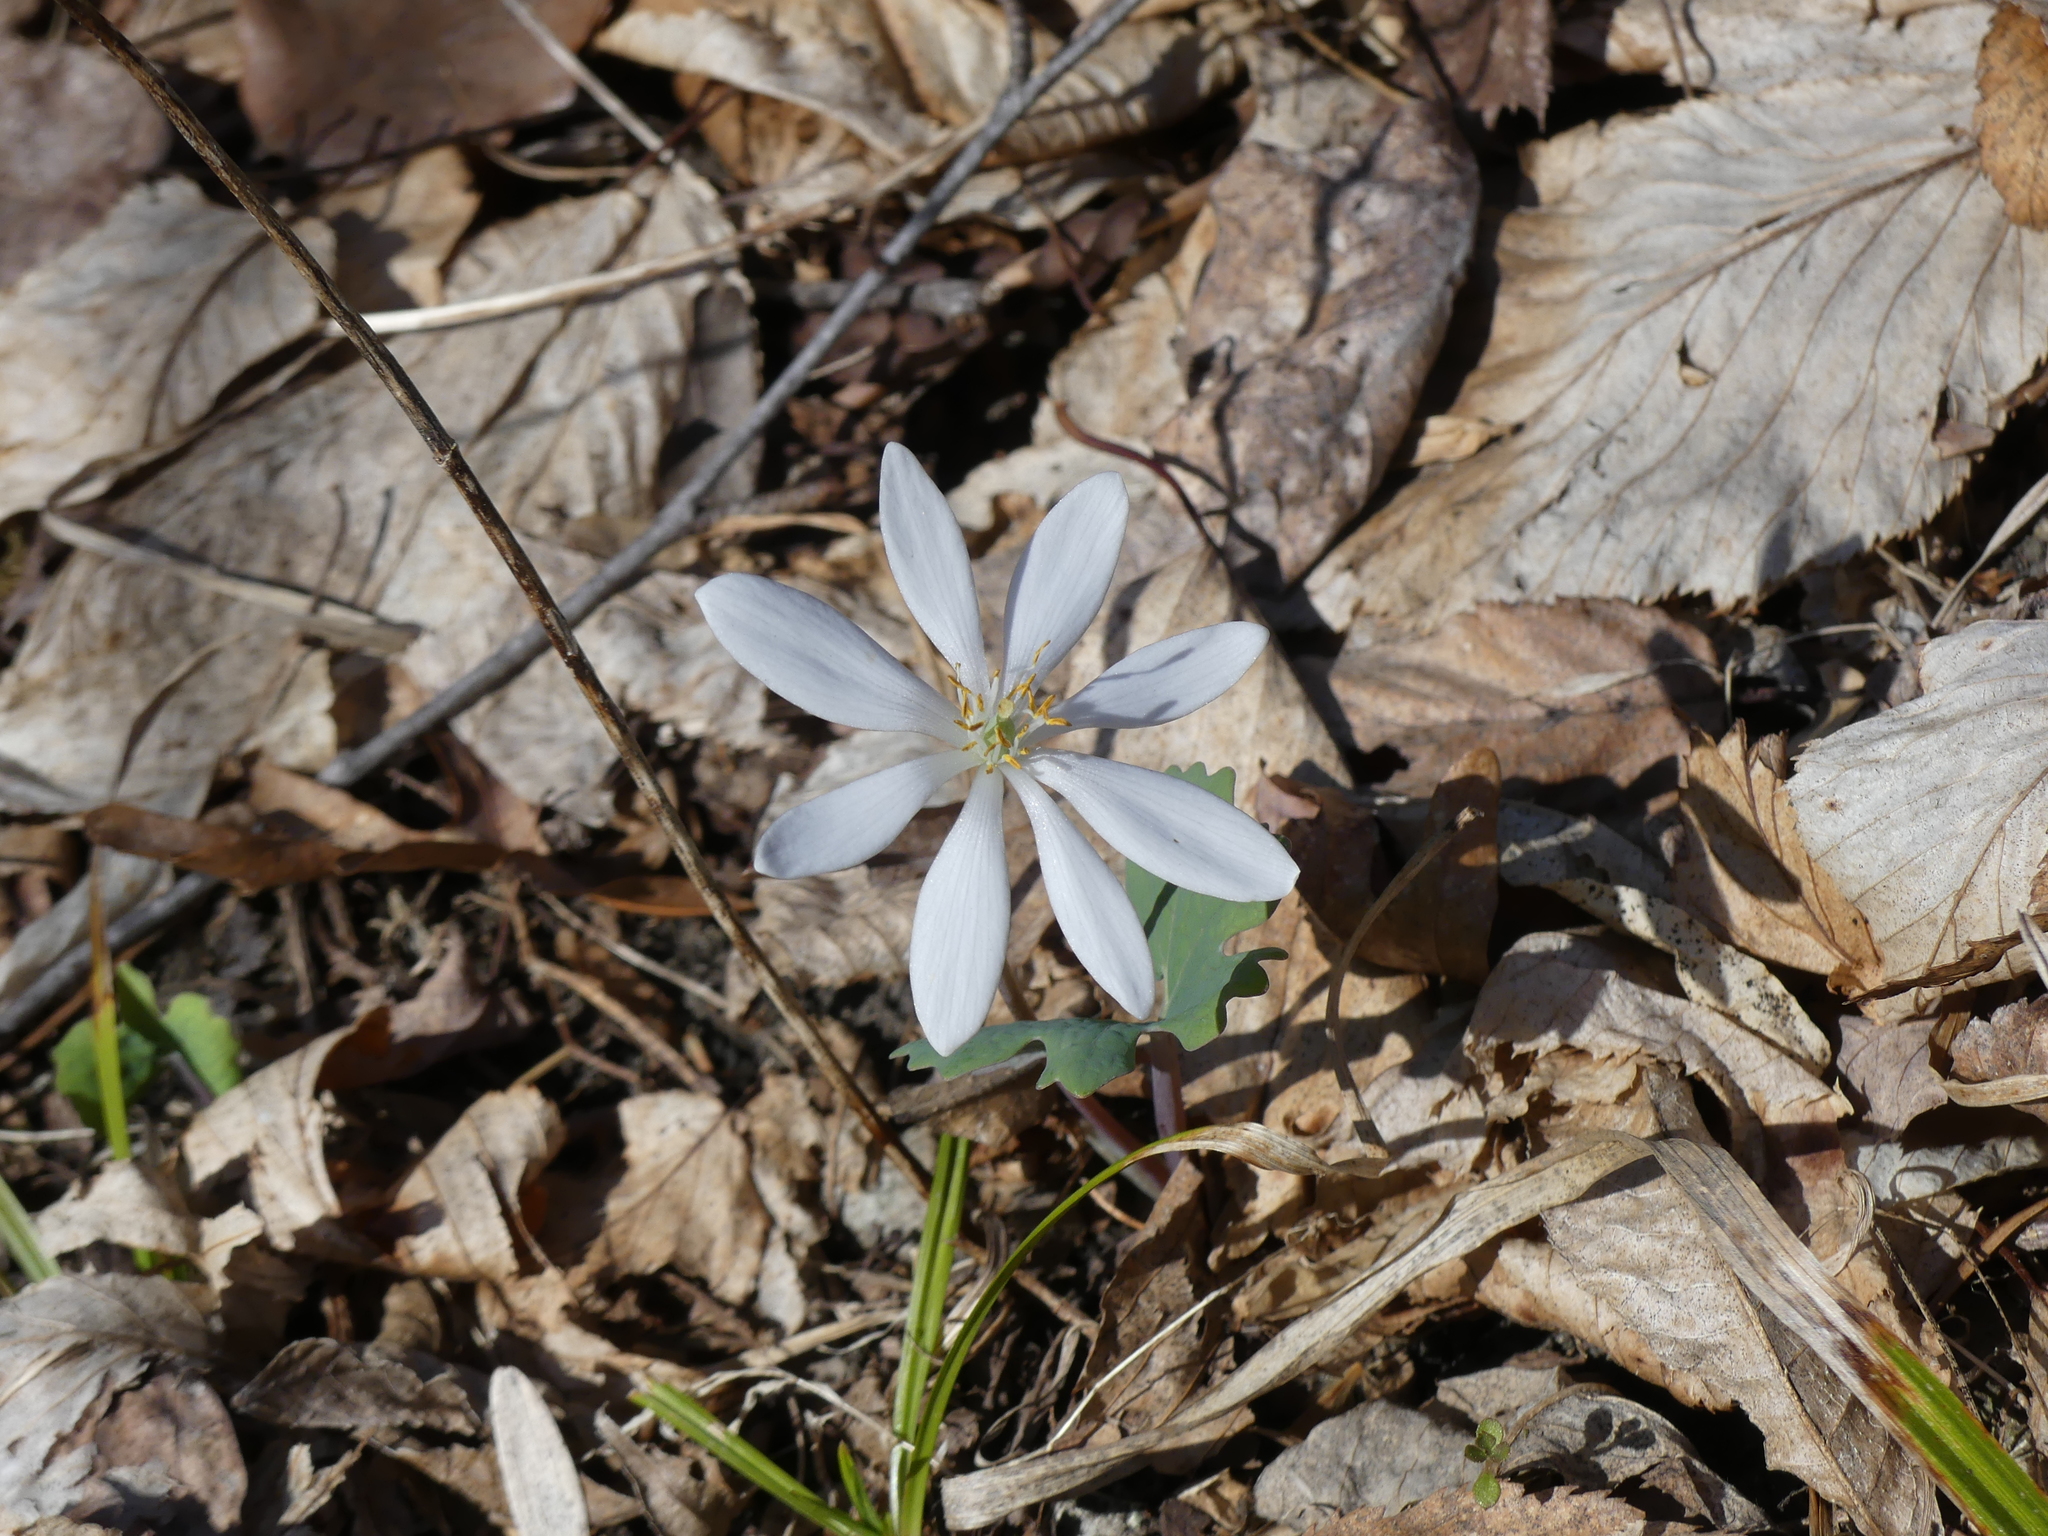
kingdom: Plantae
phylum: Tracheophyta
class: Magnoliopsida
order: Ranunculales
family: Papaveraceae
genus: Sanguinaria
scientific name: Sanguinaria canadensis
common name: Bloodroot
